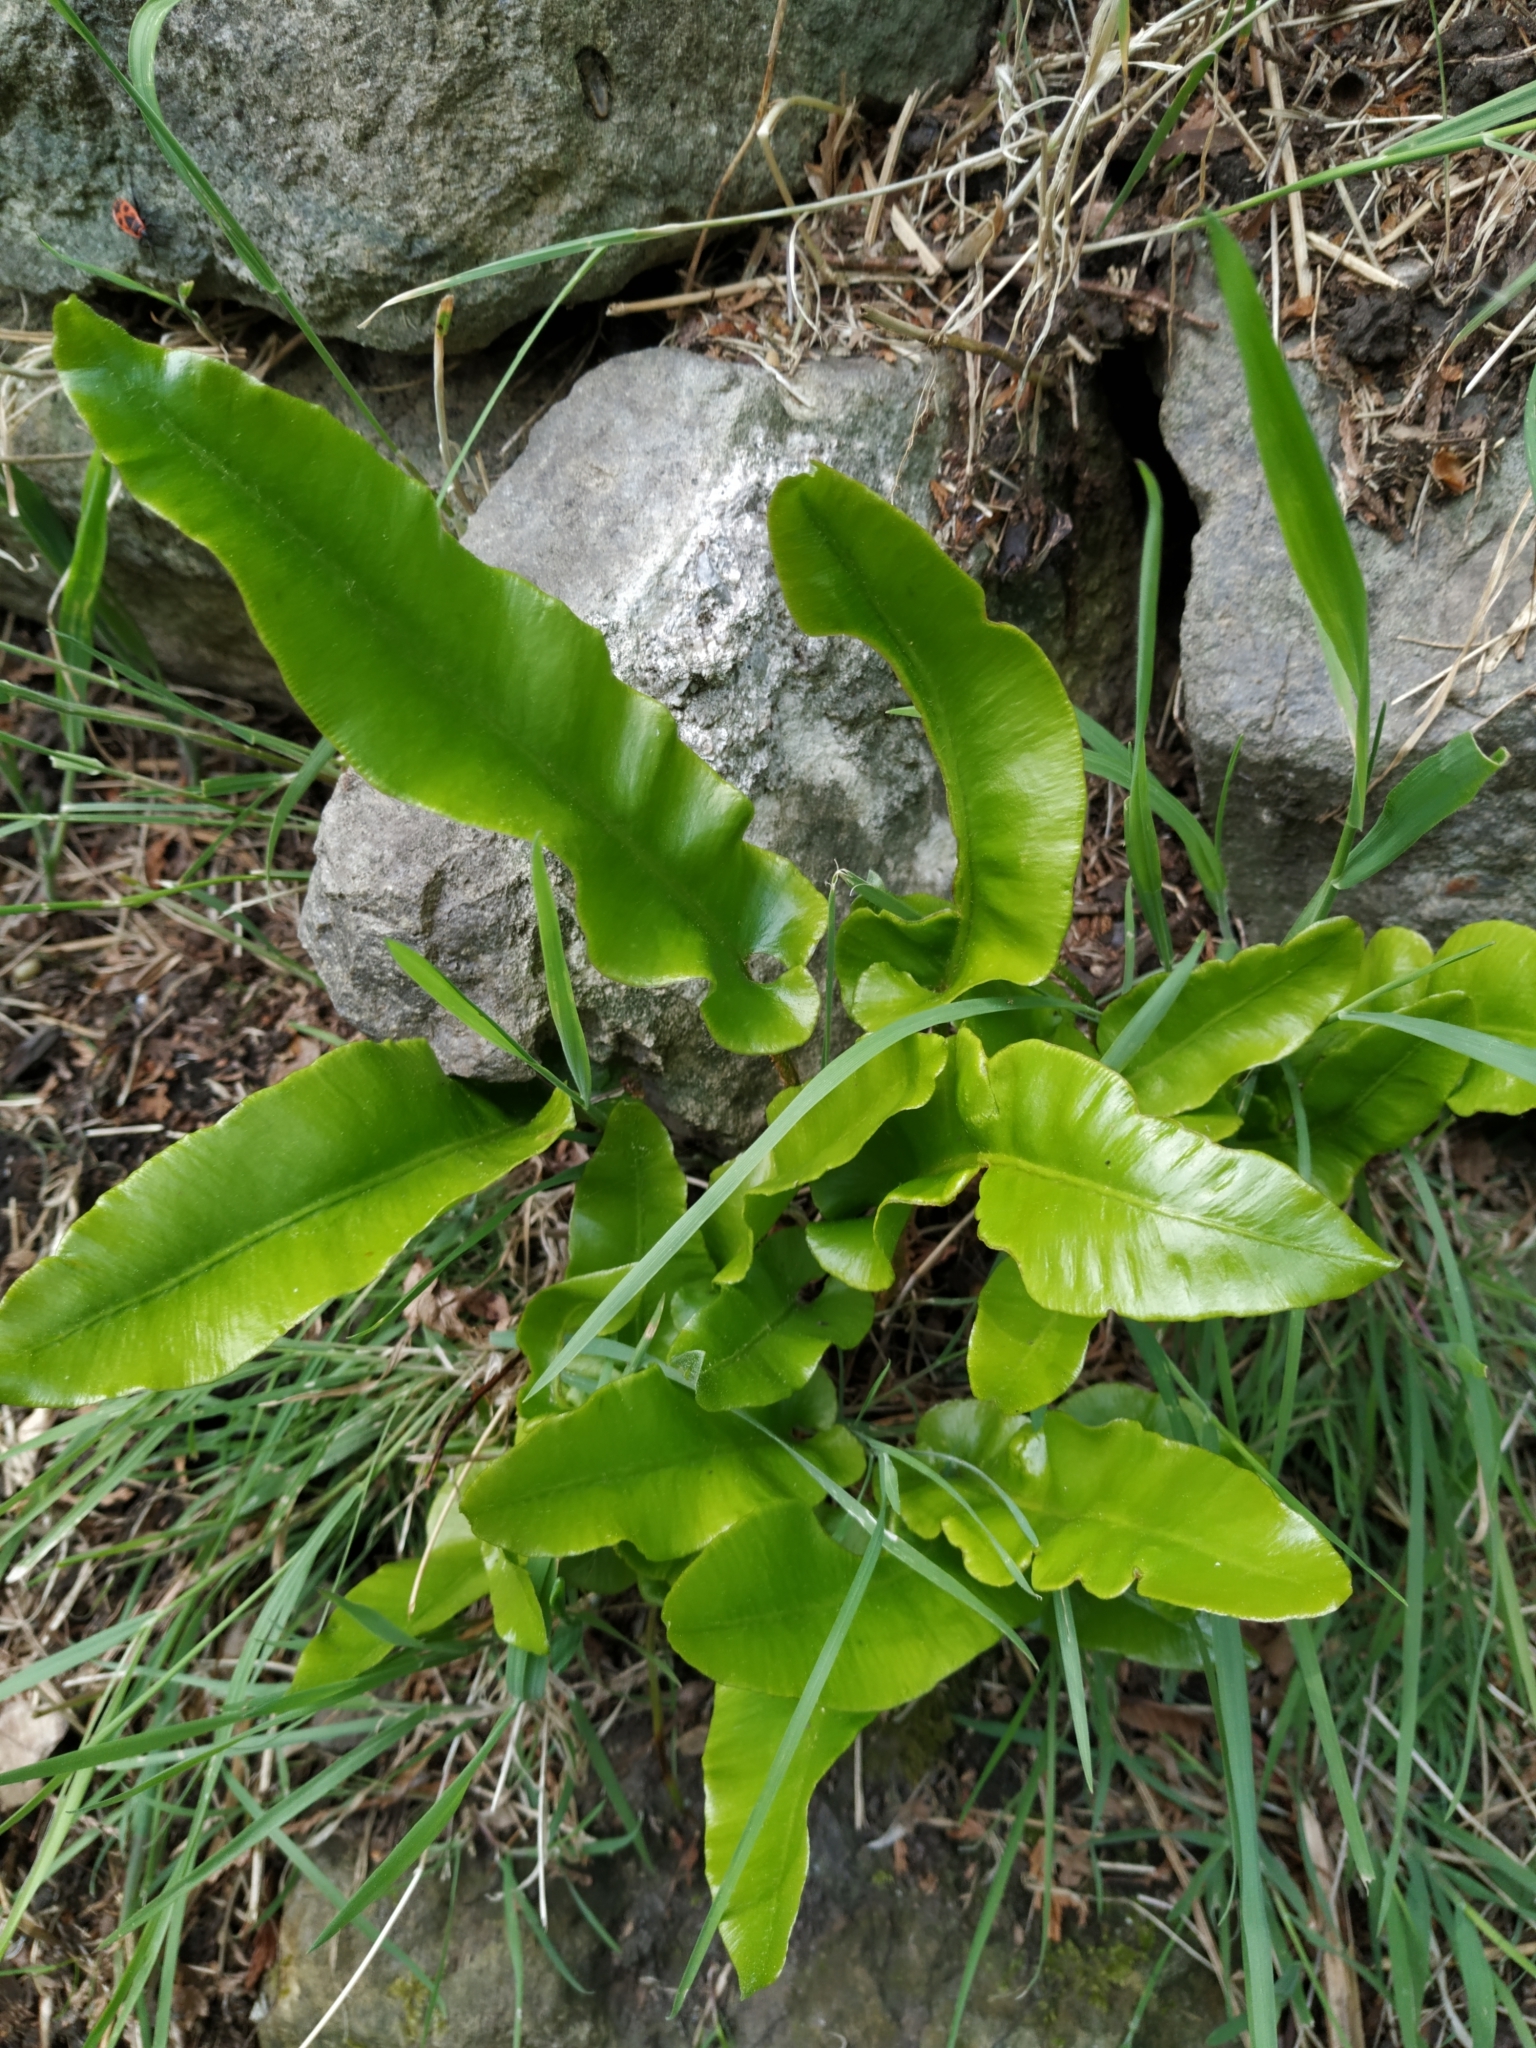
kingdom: Plantae
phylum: Tracheophyta
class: Polypodiopsida
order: Polypodiales
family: Aspleniaceae
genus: Asplenium
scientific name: Asplenium scolopendrium
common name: Hart's-tongue fern
